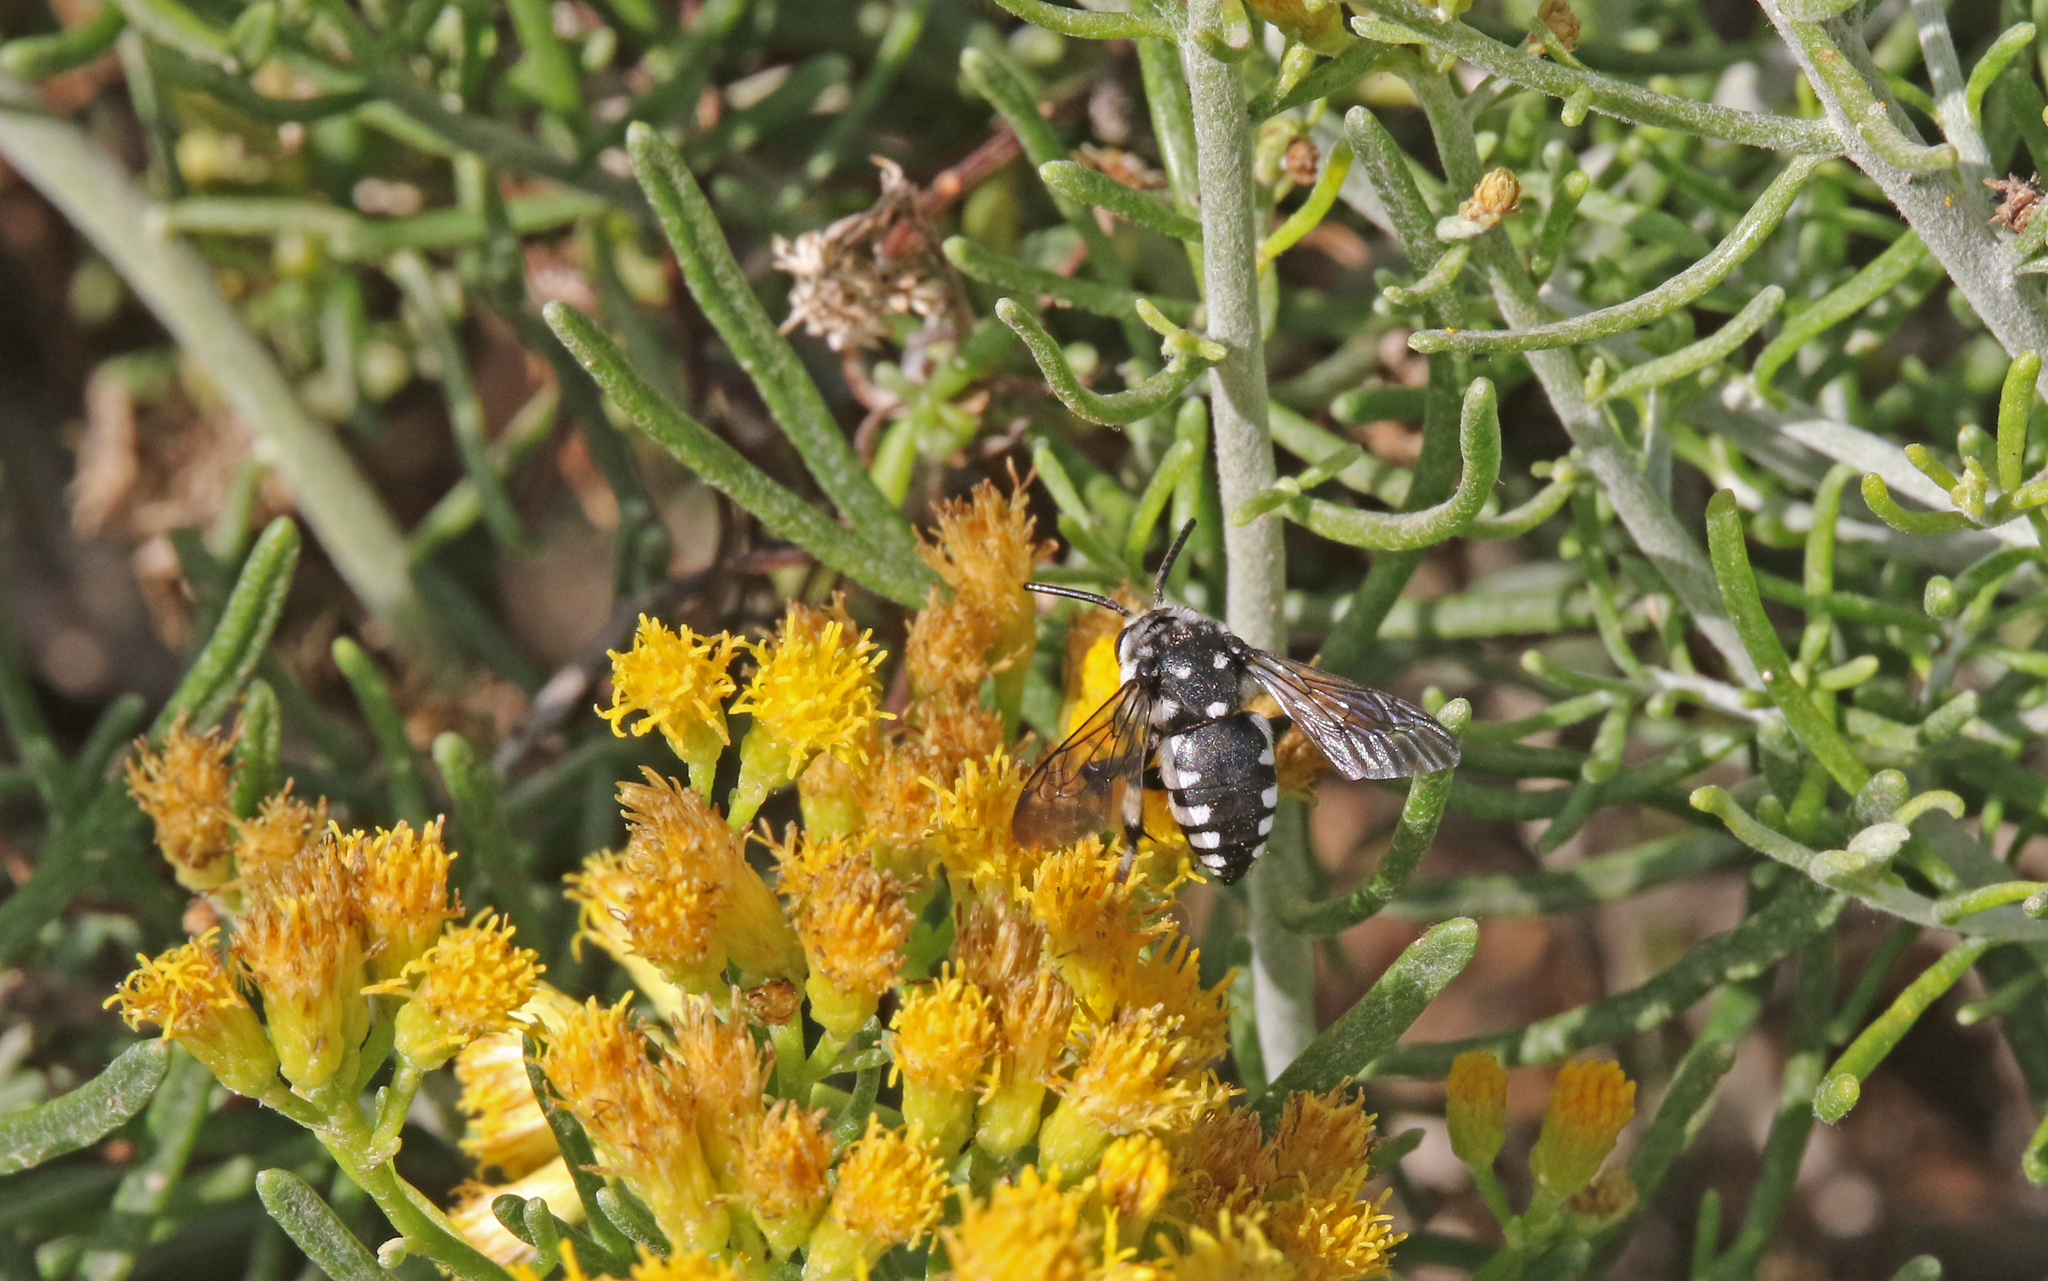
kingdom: Animalia
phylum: Arthropoda
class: Insecta
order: Hymenoptera
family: Apidae
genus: Thyreus
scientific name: Thyreus histrionicus
